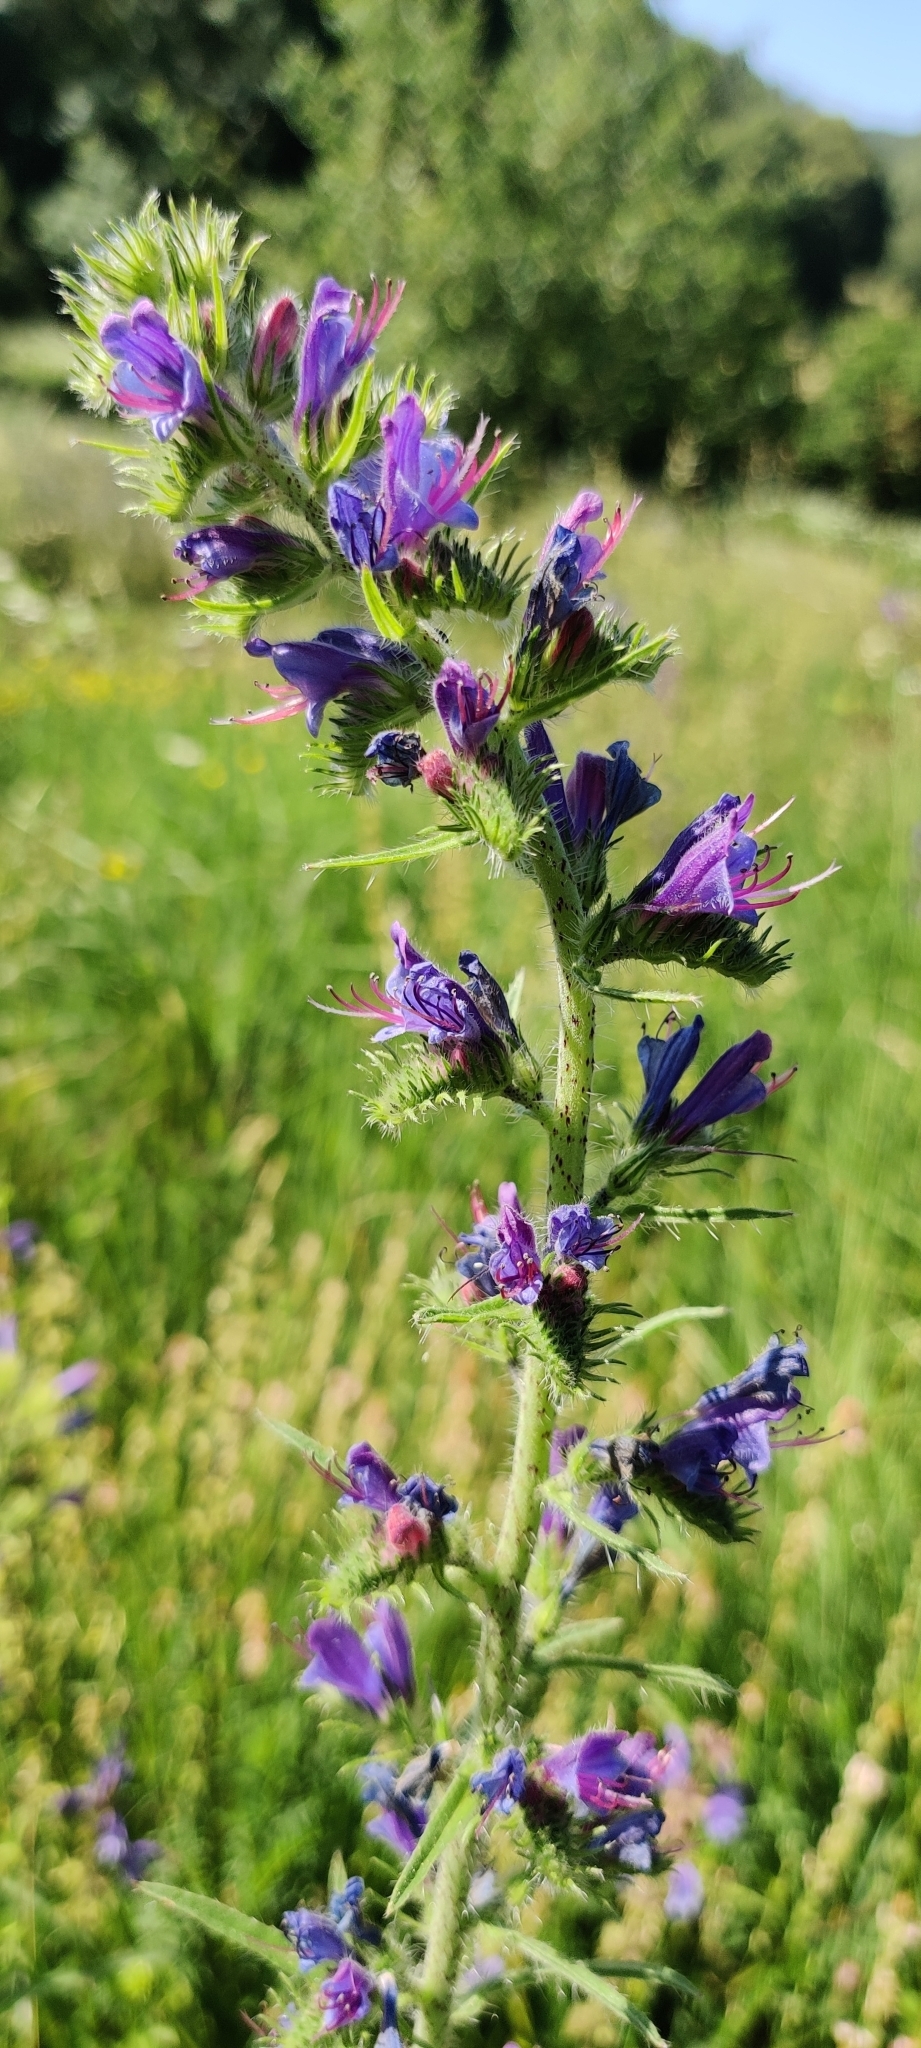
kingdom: Plantae
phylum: Tracheophyta
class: Magnoliopsida
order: Boraginales
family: Boraginaceae
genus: Echium
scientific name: Echium vulgare
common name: Common viper's bugloss
